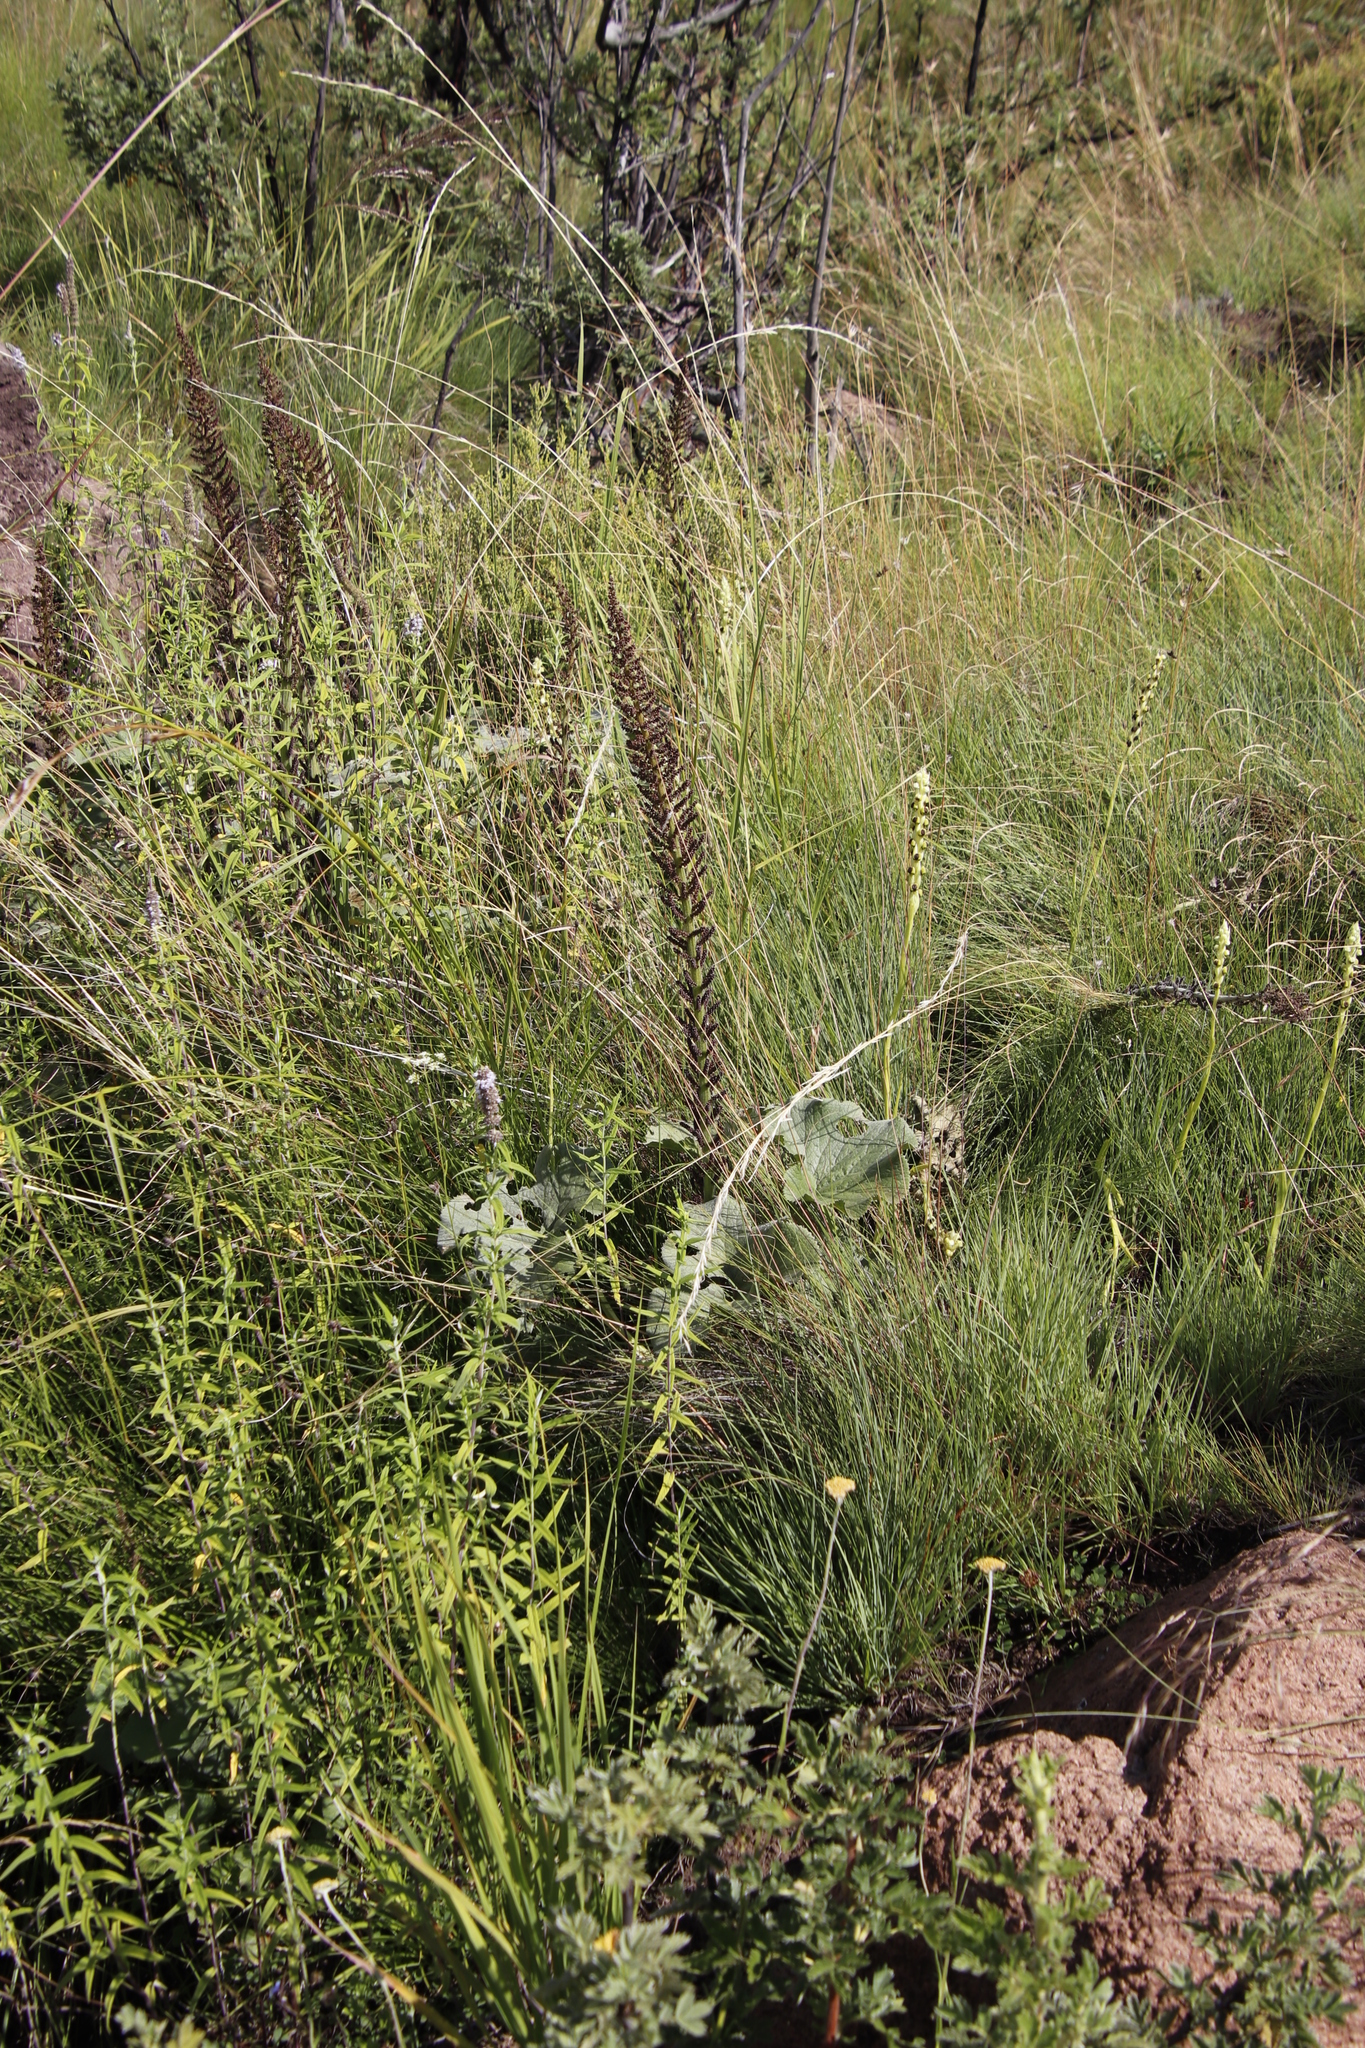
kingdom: Plantae
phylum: Tracheophyta
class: Magnoliopsida
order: Gunnerales
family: Gunneraceae
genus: Gunnera
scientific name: Gunnera perpensa
